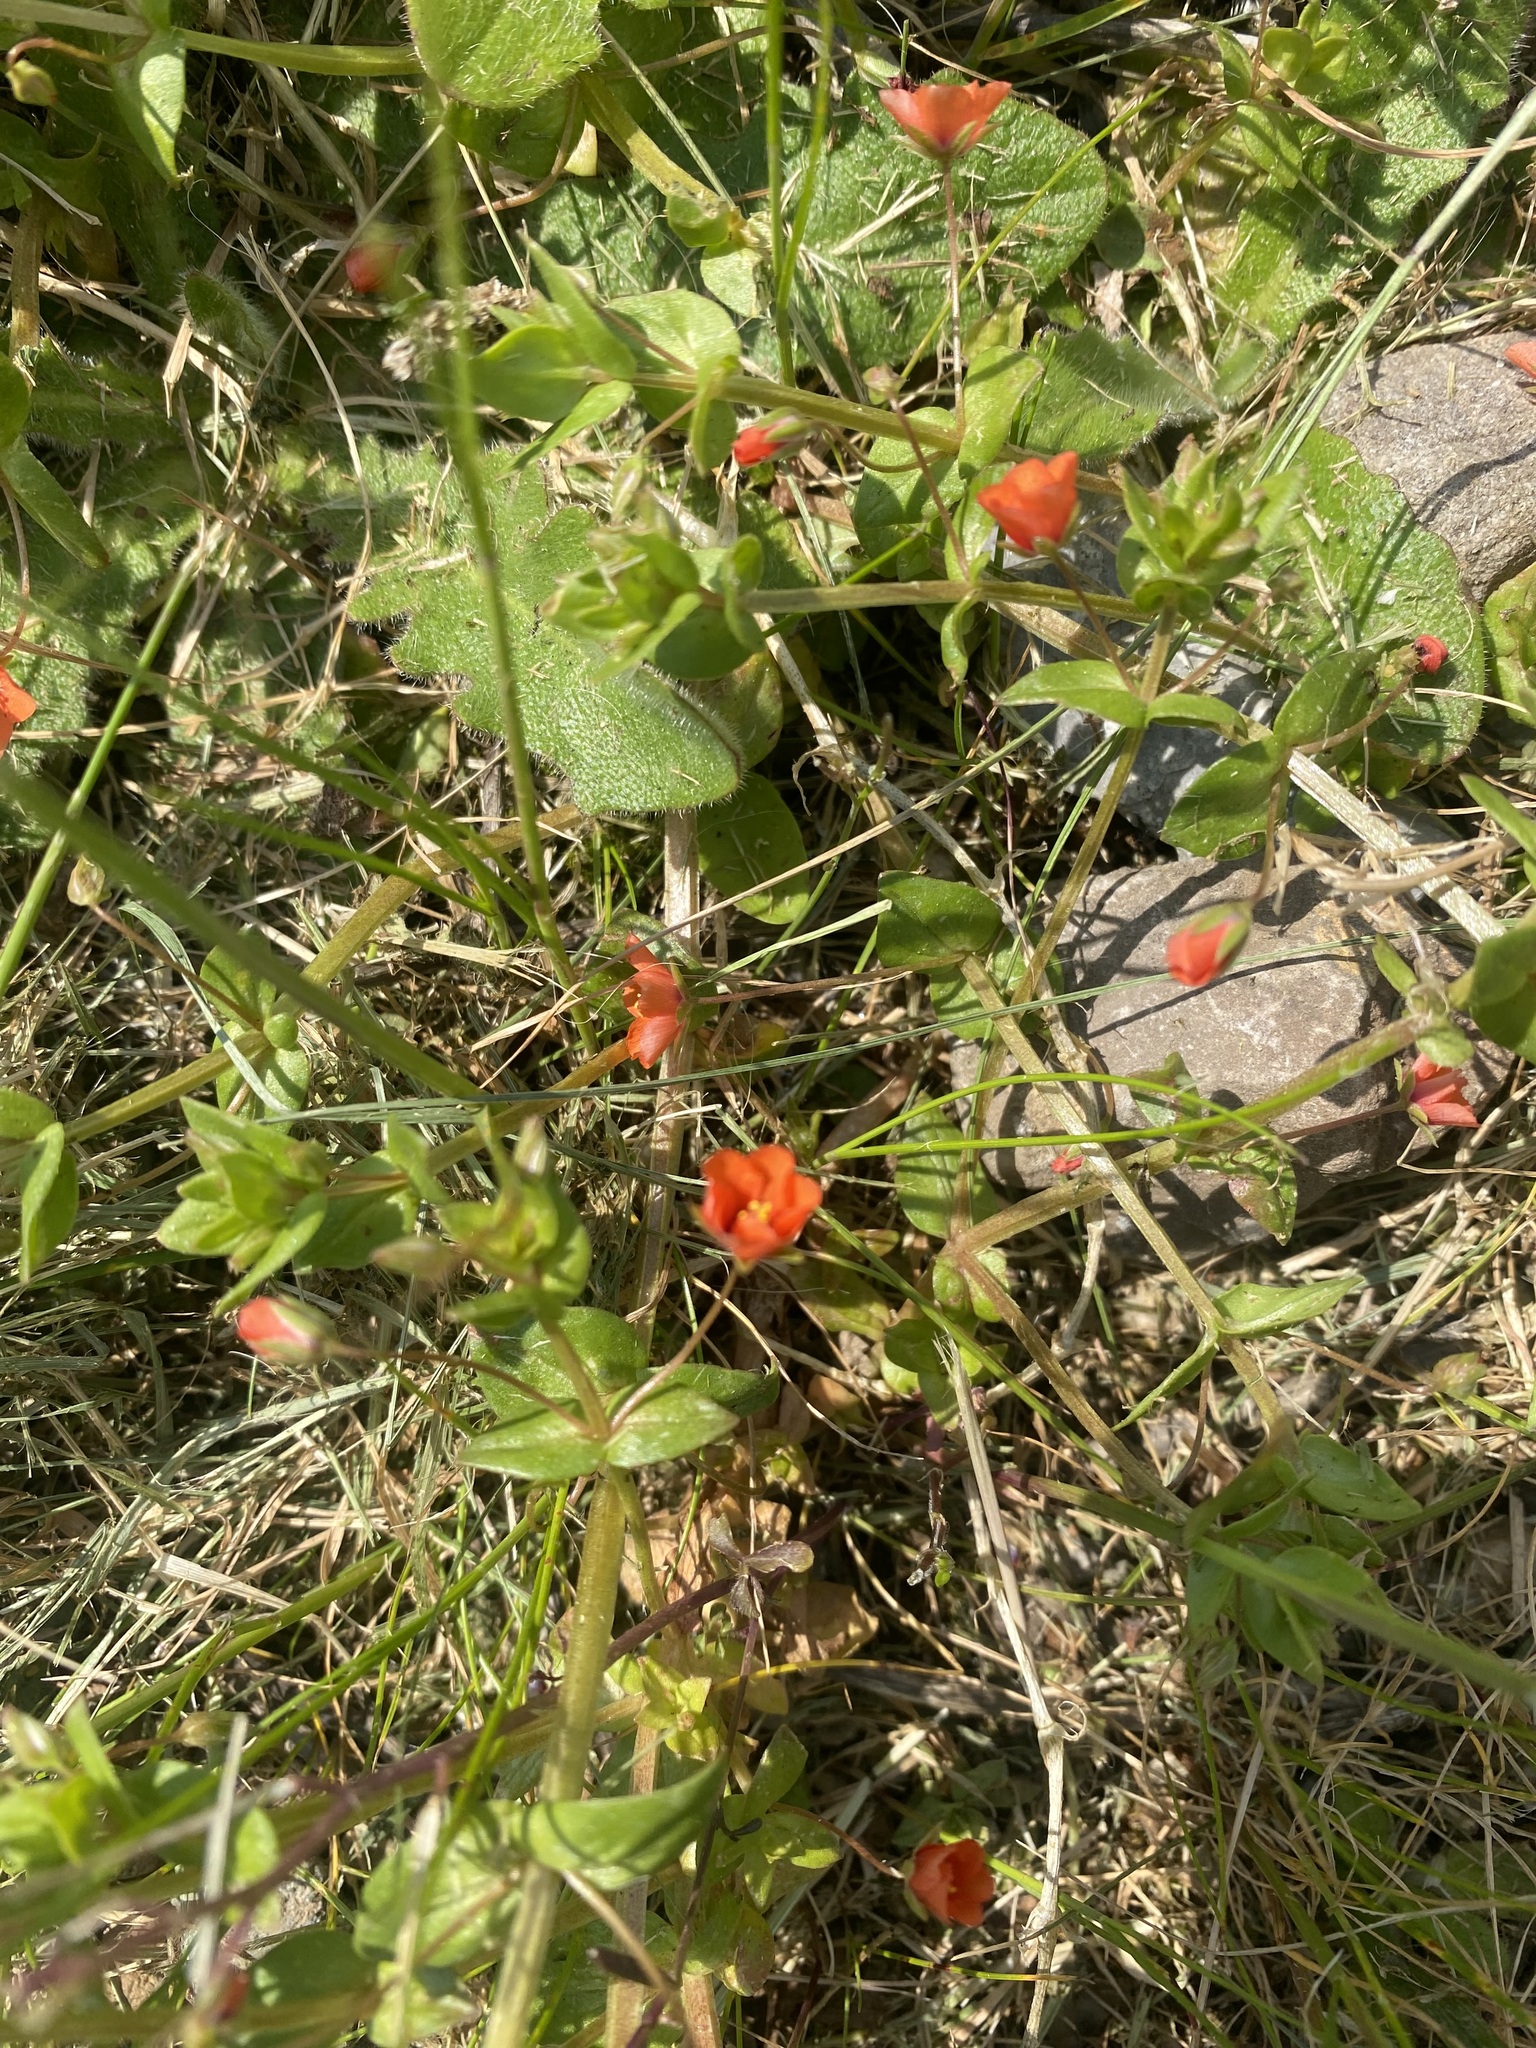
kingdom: Plantae
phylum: Tracheophyta
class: Magnoliopsida
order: Ericales
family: Primulaceae
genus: Lysimachia
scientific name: Lysimachia arvensis
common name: Scarlet pimpernel
